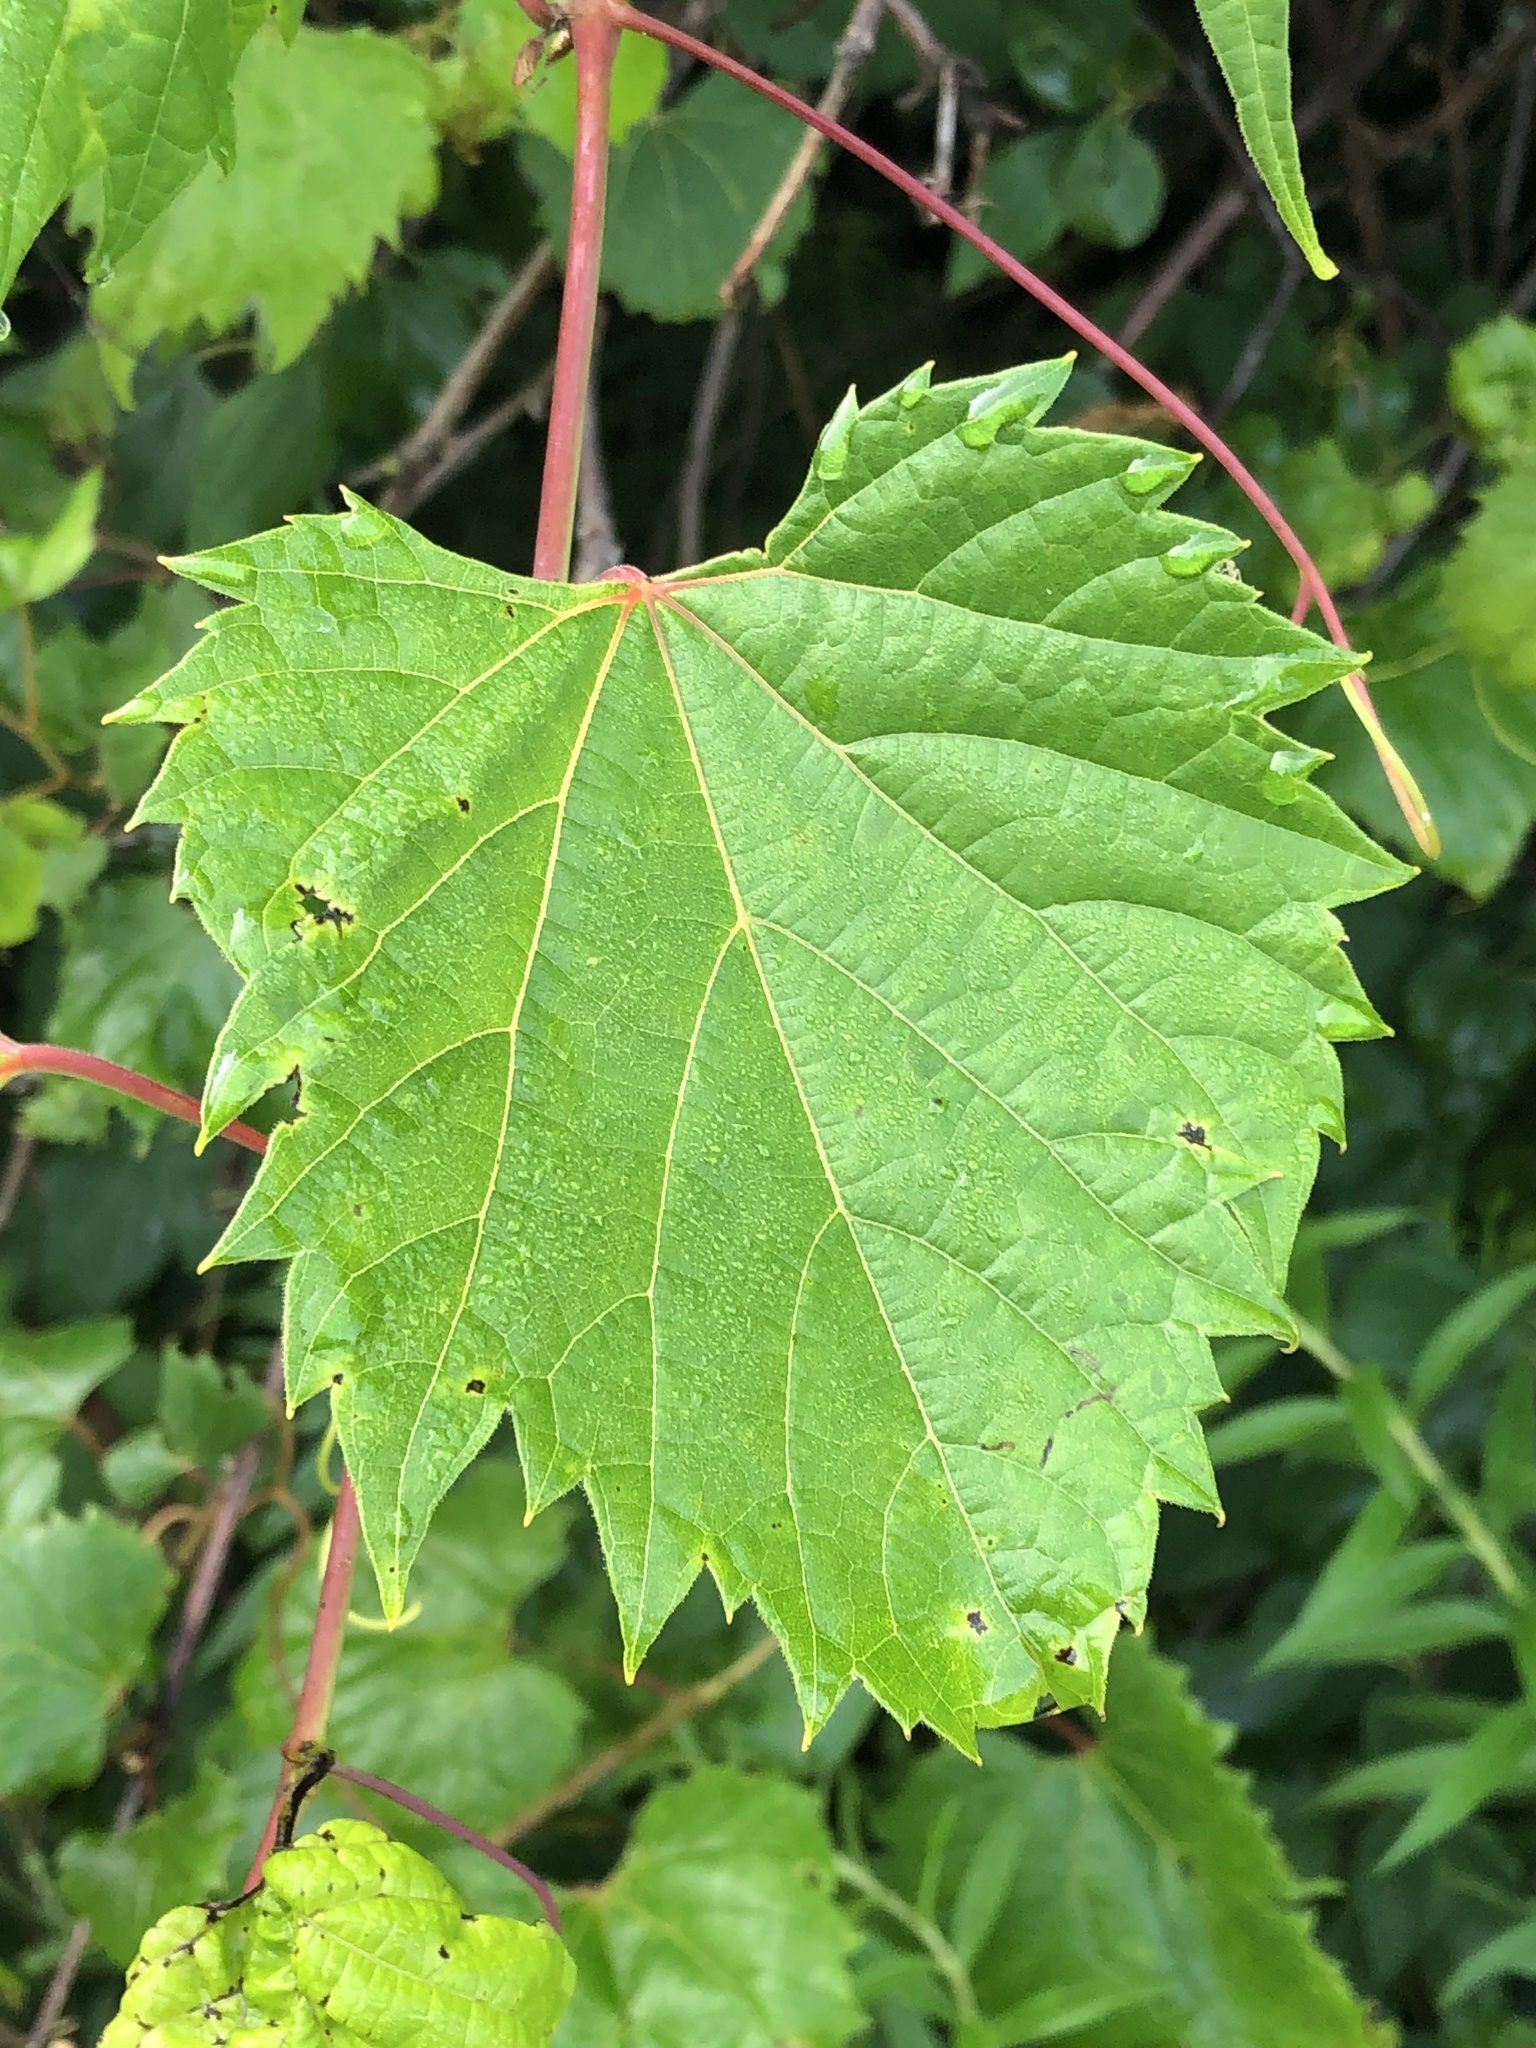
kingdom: Plantae
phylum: Tracheophyta
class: Magnoliopsida
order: Vitales
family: Vitaceae
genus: Vitis
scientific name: Vitis riparia
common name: Frost grape
